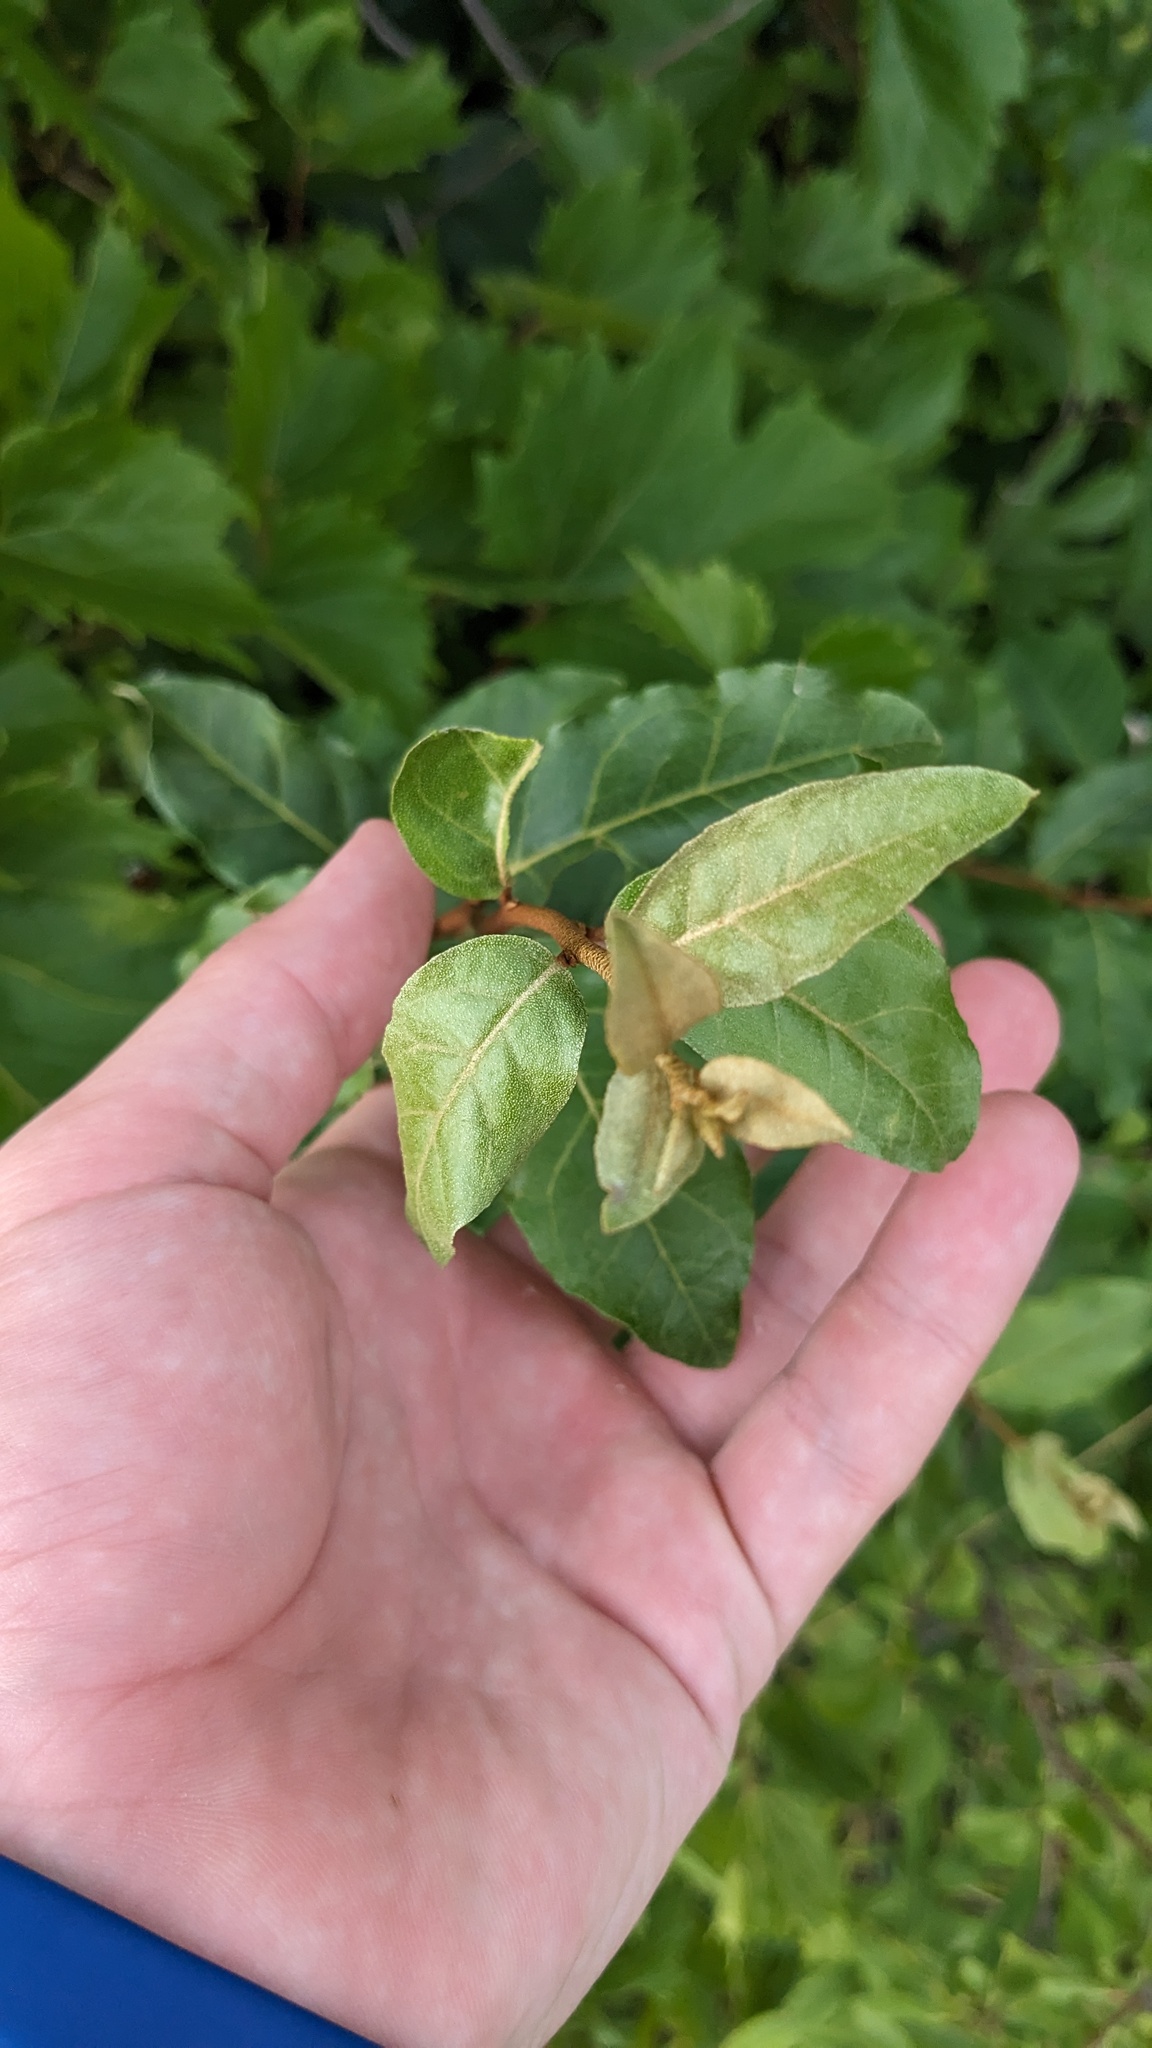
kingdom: Plantae
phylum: Tracheophyta
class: Magnoliopsida
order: Rosales
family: Elaeagnaceae
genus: Elaeagnus
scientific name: Elaeagnus umbellata
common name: Autumn olive
